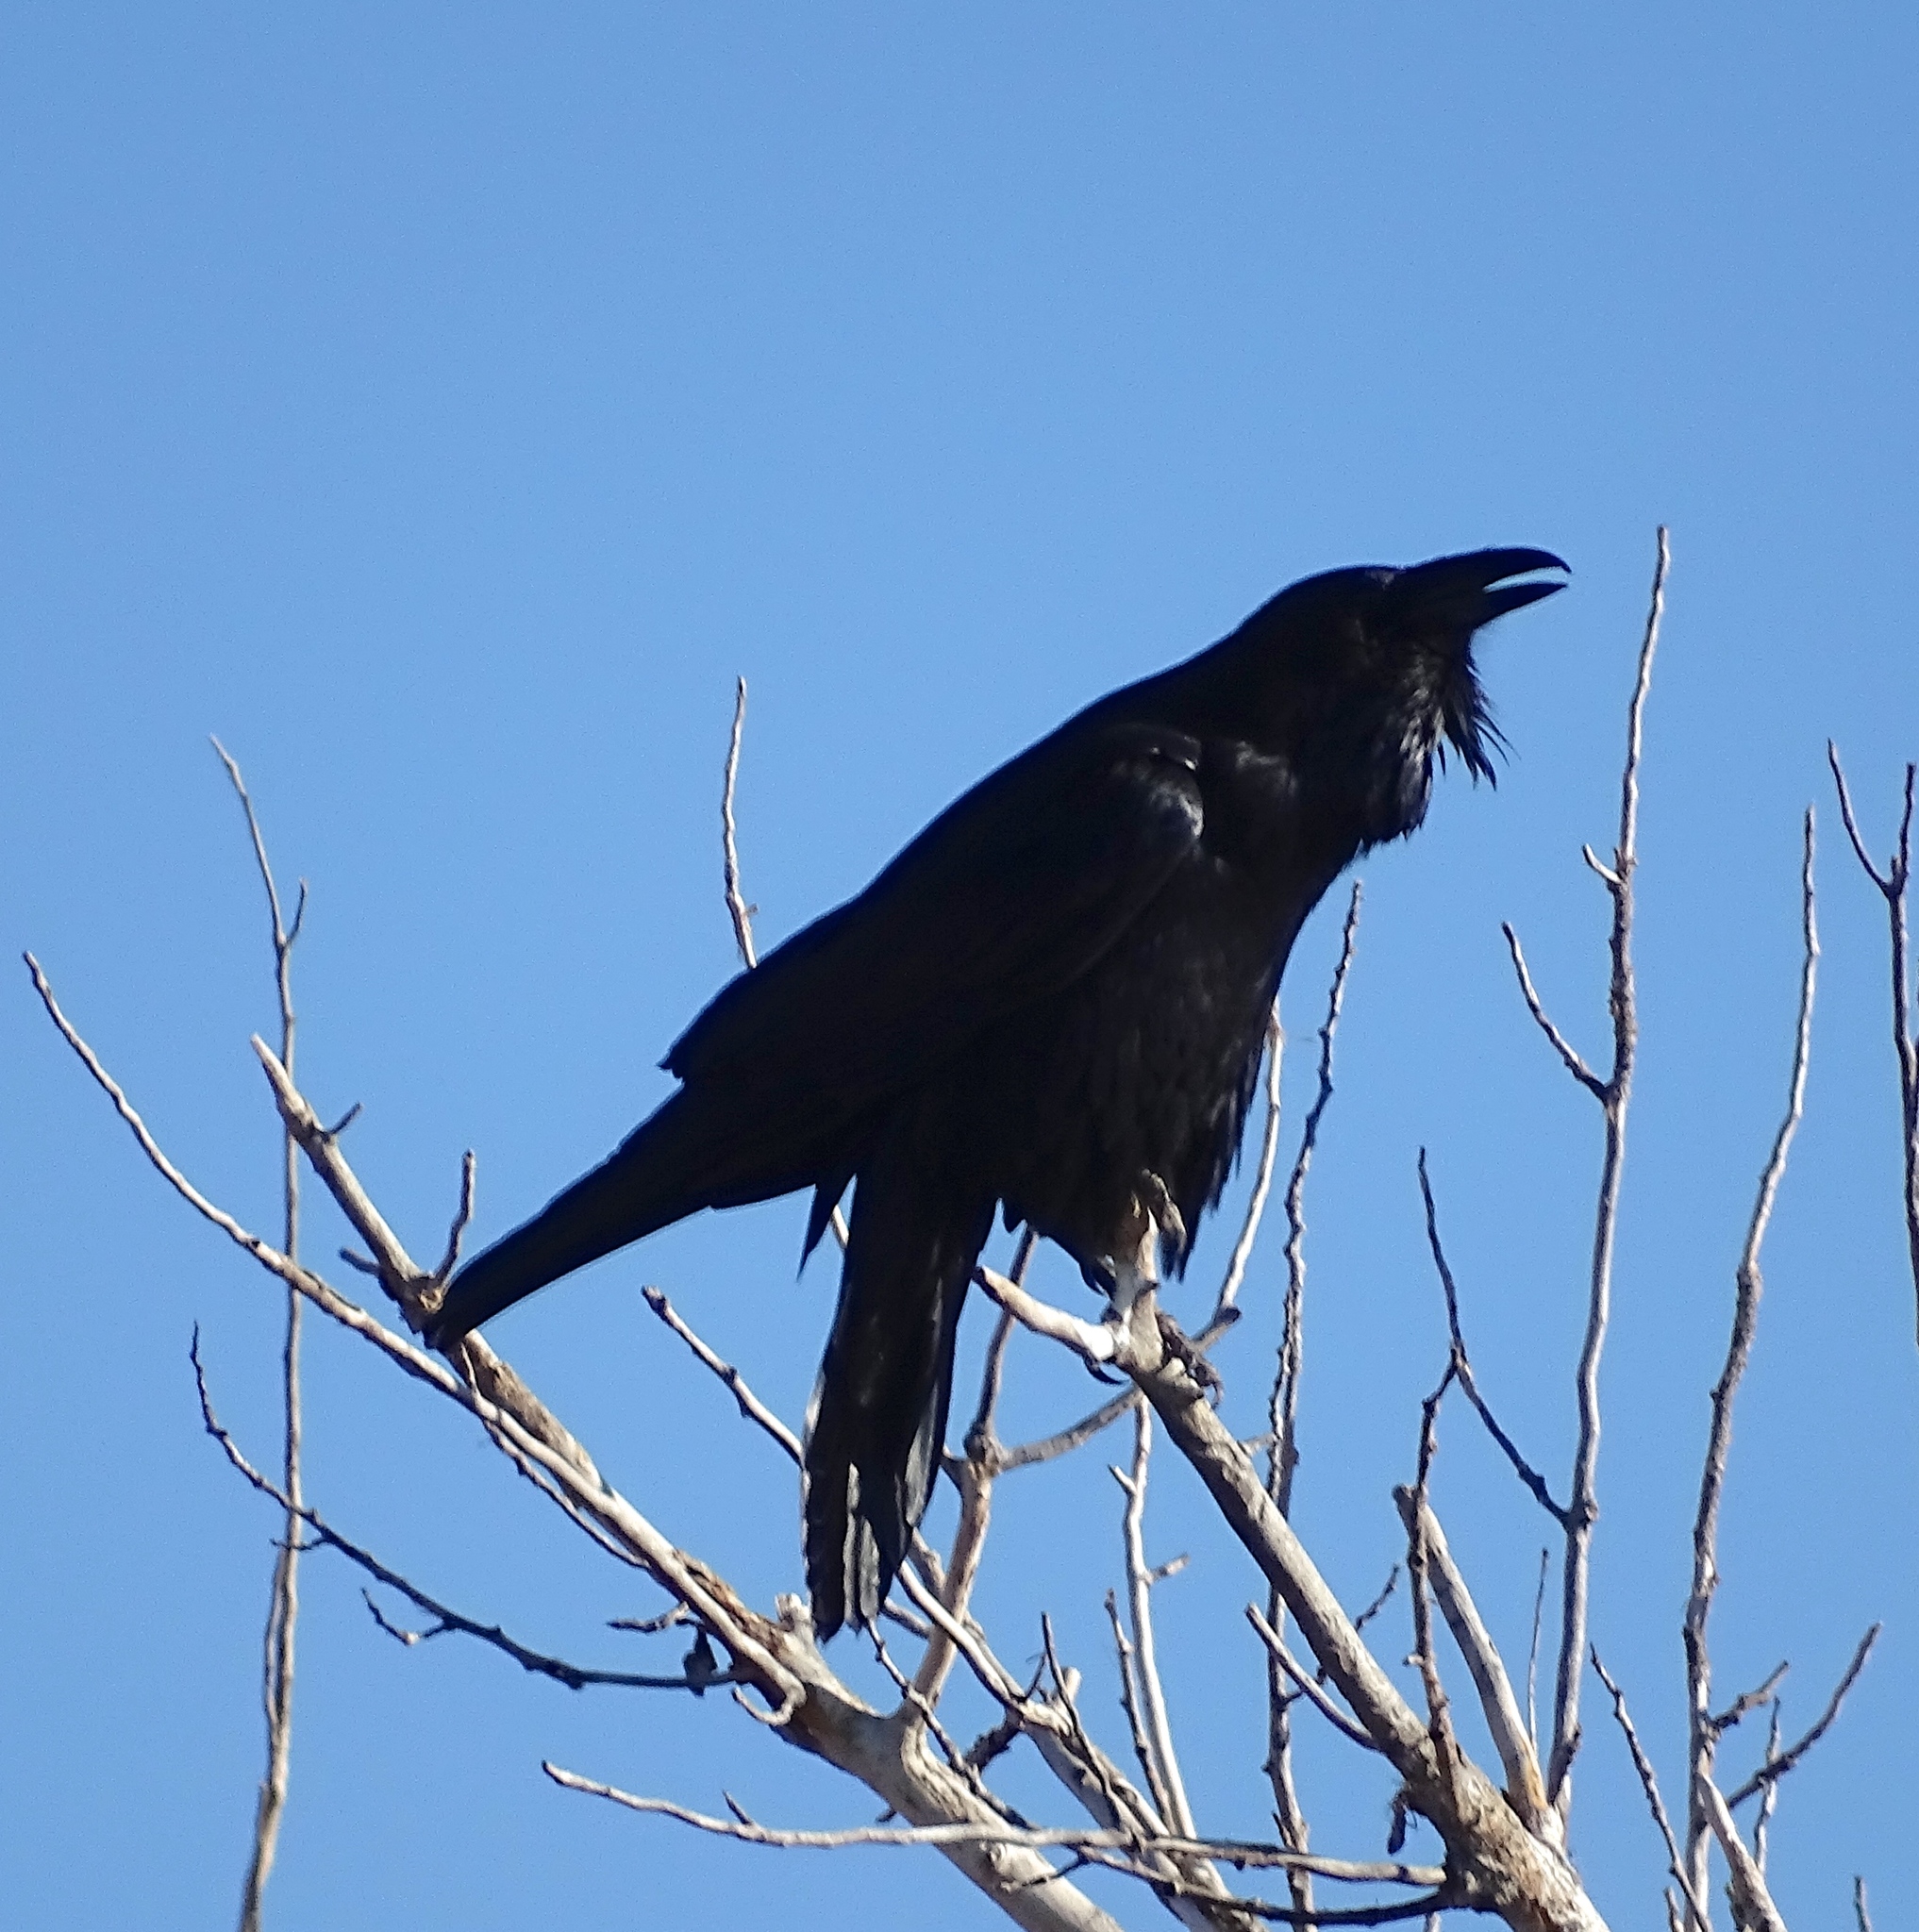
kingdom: Animalia
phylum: Chordata
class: Aves
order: Passeriformes
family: Corvidae
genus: Corvus
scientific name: Corvus corax
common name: Common raven
